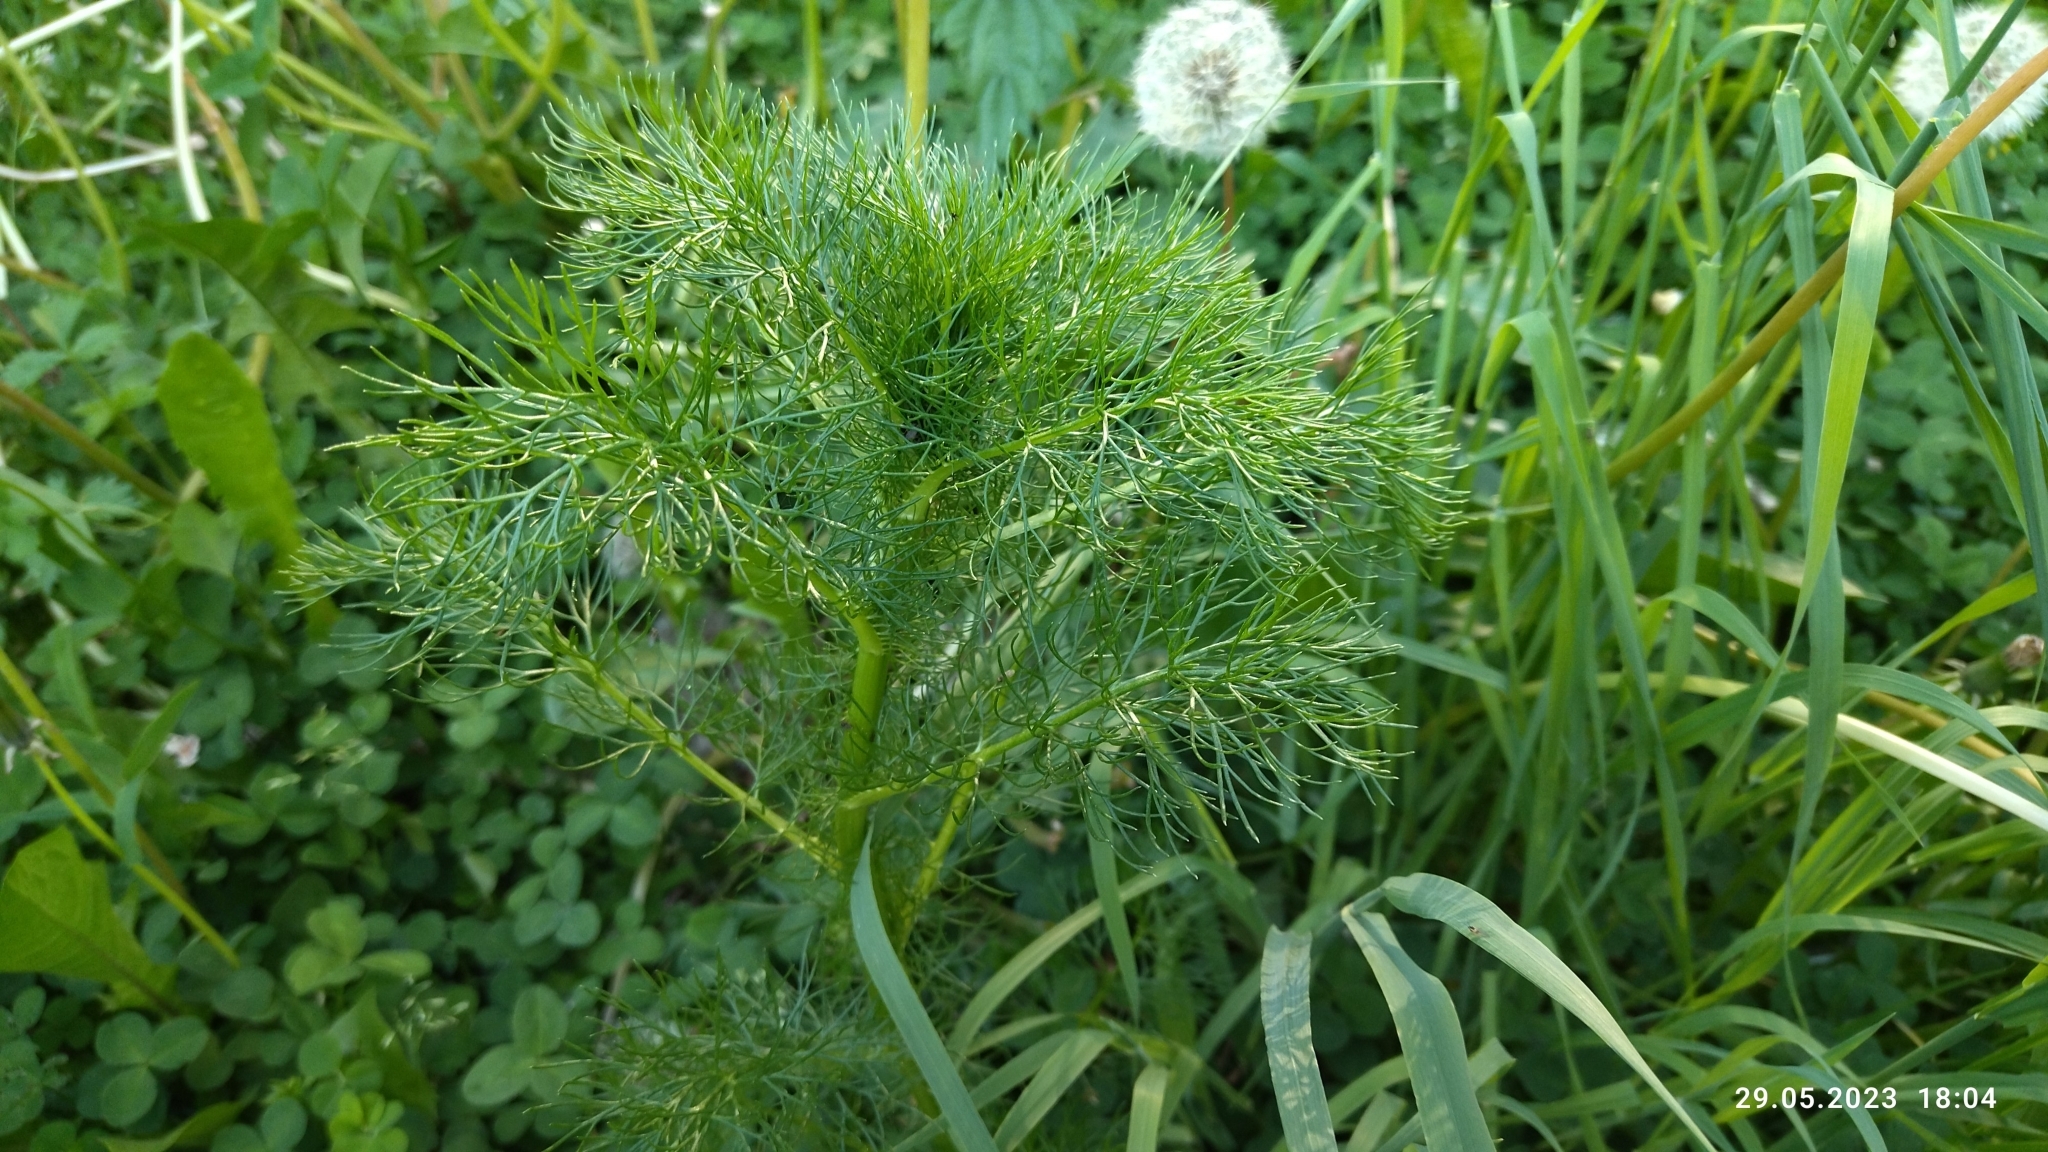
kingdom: Plantae
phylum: Tracheophyta
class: Magnoliopsida
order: Asterales
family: Asteraceae
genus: Tripleurospermum
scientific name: Tripleurospermum inodorum
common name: Scentless mayweed
